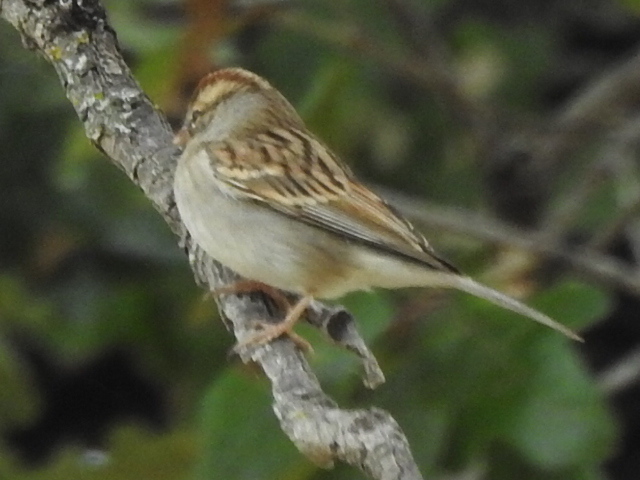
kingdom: Animalia
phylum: Chordata
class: Aves
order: Passeriformes
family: Passerellidae
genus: Spizella
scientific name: Spizella passerina
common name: Chipping sparrow
